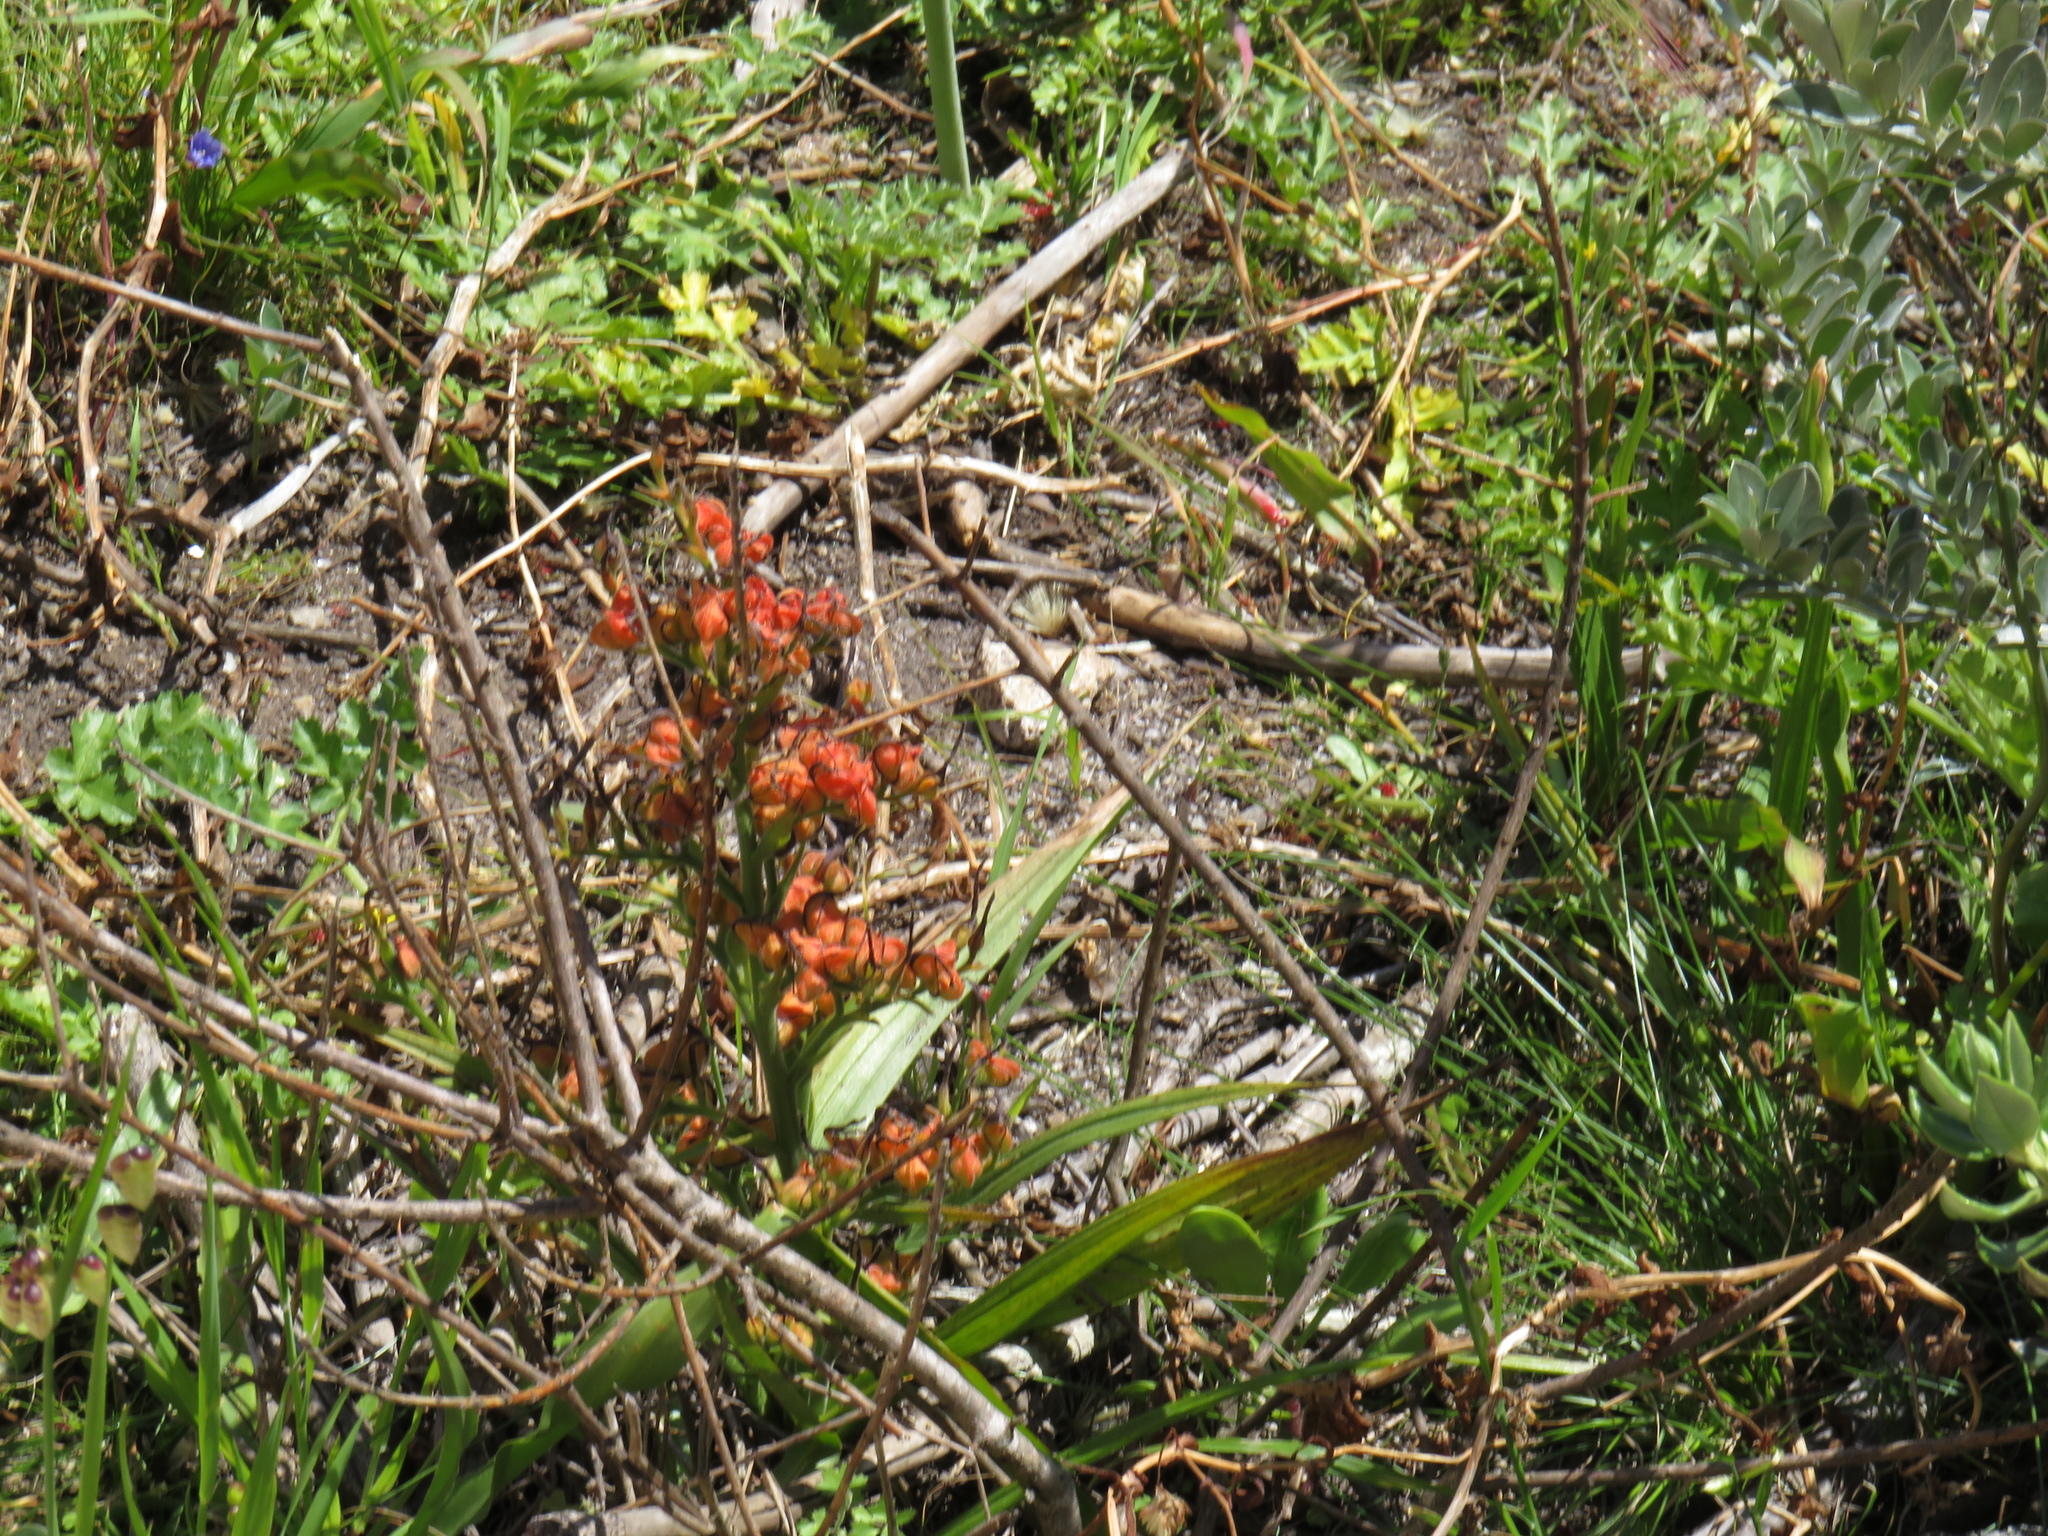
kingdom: Plantae
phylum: Tracheophyta
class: Liliopsida
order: Commelinales
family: Haemodoraceae
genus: Wachendorfia
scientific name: Wachendorfia multiflora
